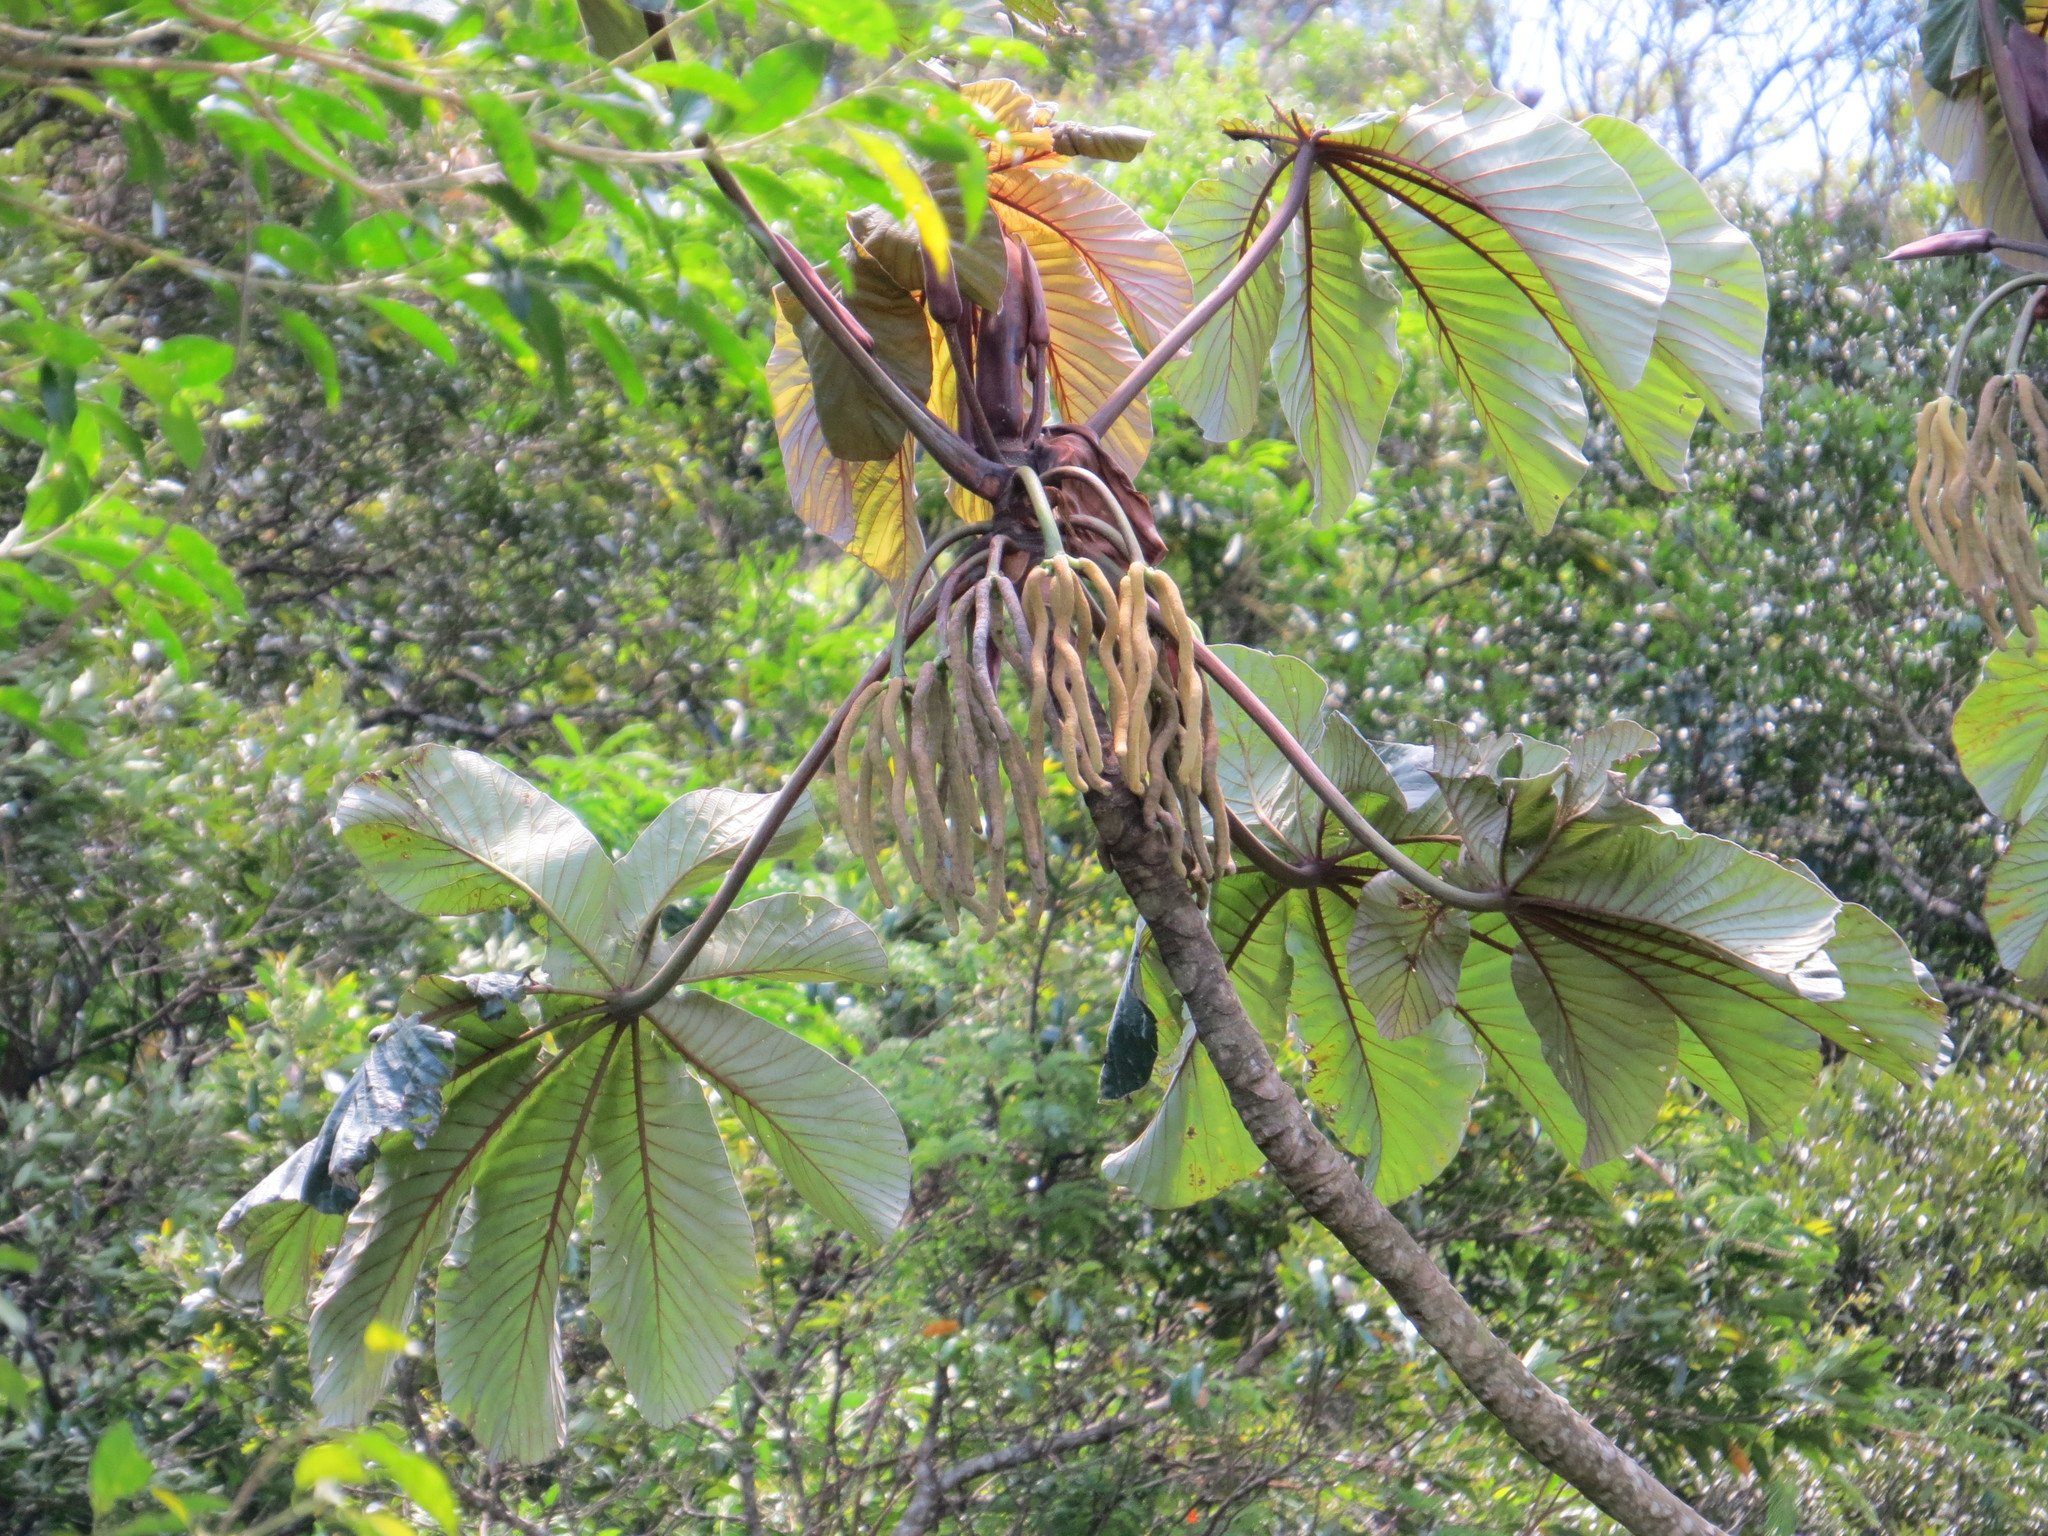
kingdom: Plantae
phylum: Tracheophyta
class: Magnoliopsida
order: Rosales
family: Urticaceae
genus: Cecropia
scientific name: Cecropia glaziovii
